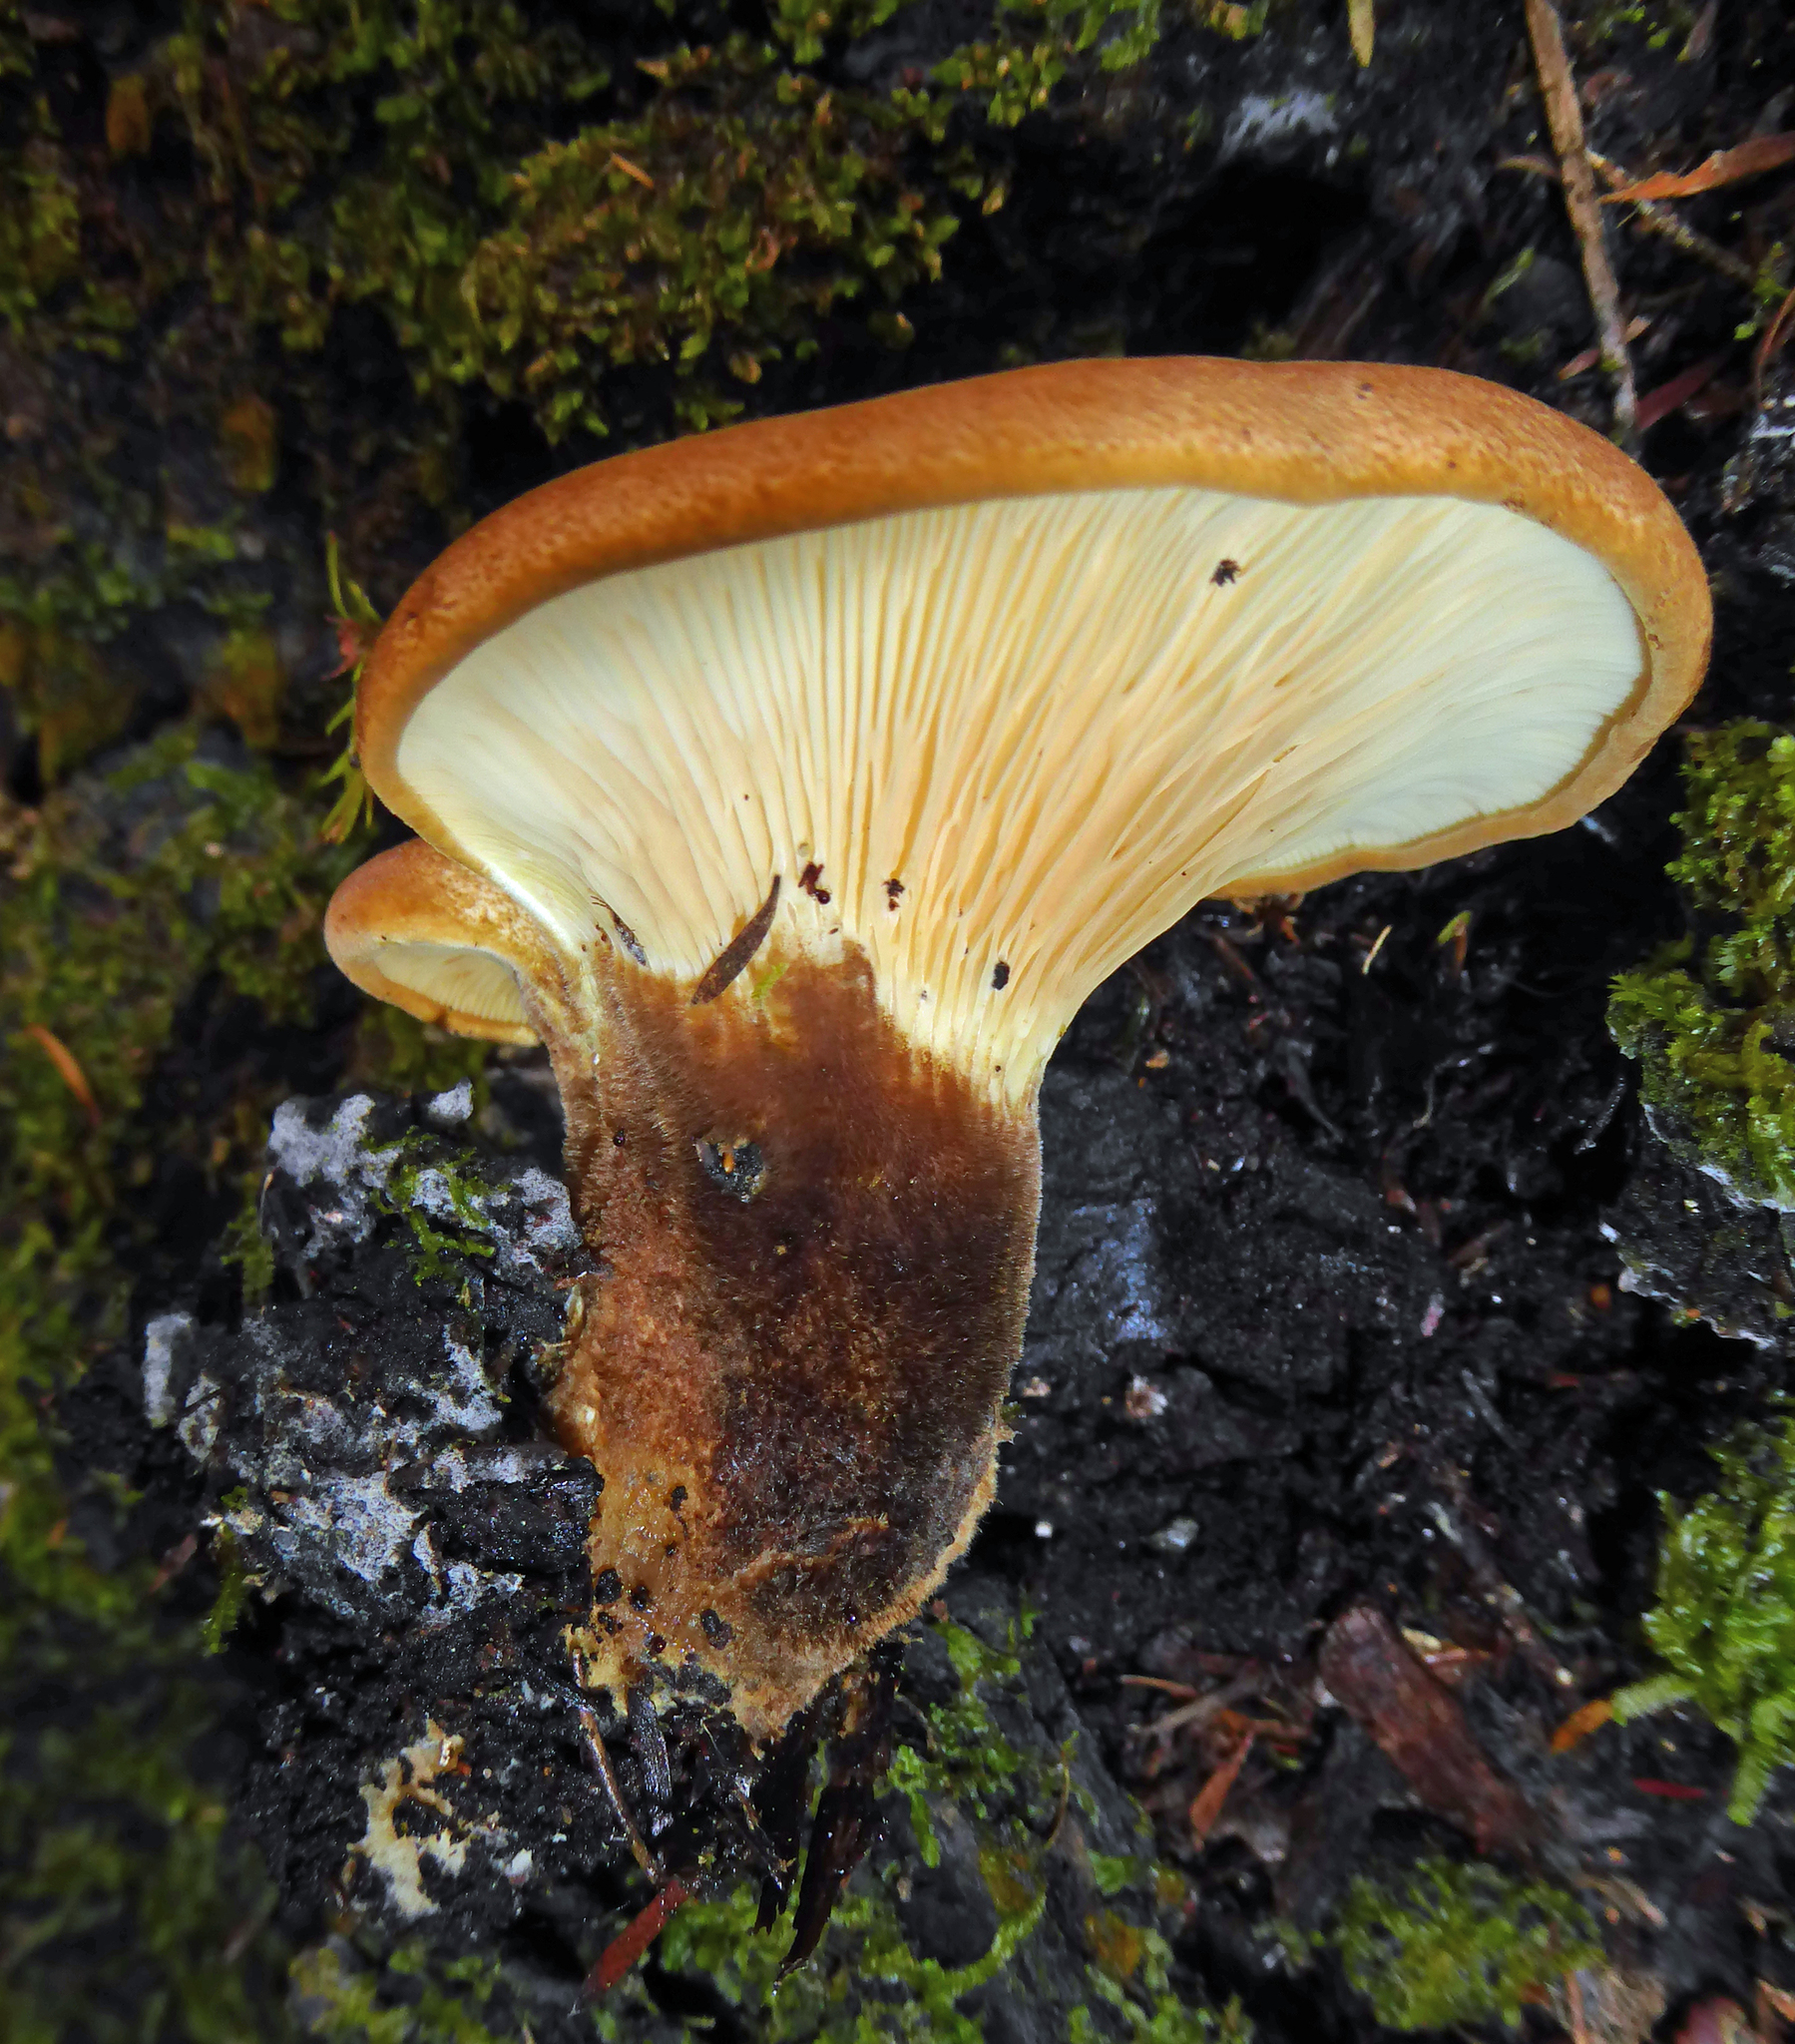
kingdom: Fungi
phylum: Basidiomycota
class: Agaricomycetes
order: Boletales
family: Tapinellaceae
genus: Tapinella
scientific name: Tapinella atrotomentosa
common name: Velvet rollrim
